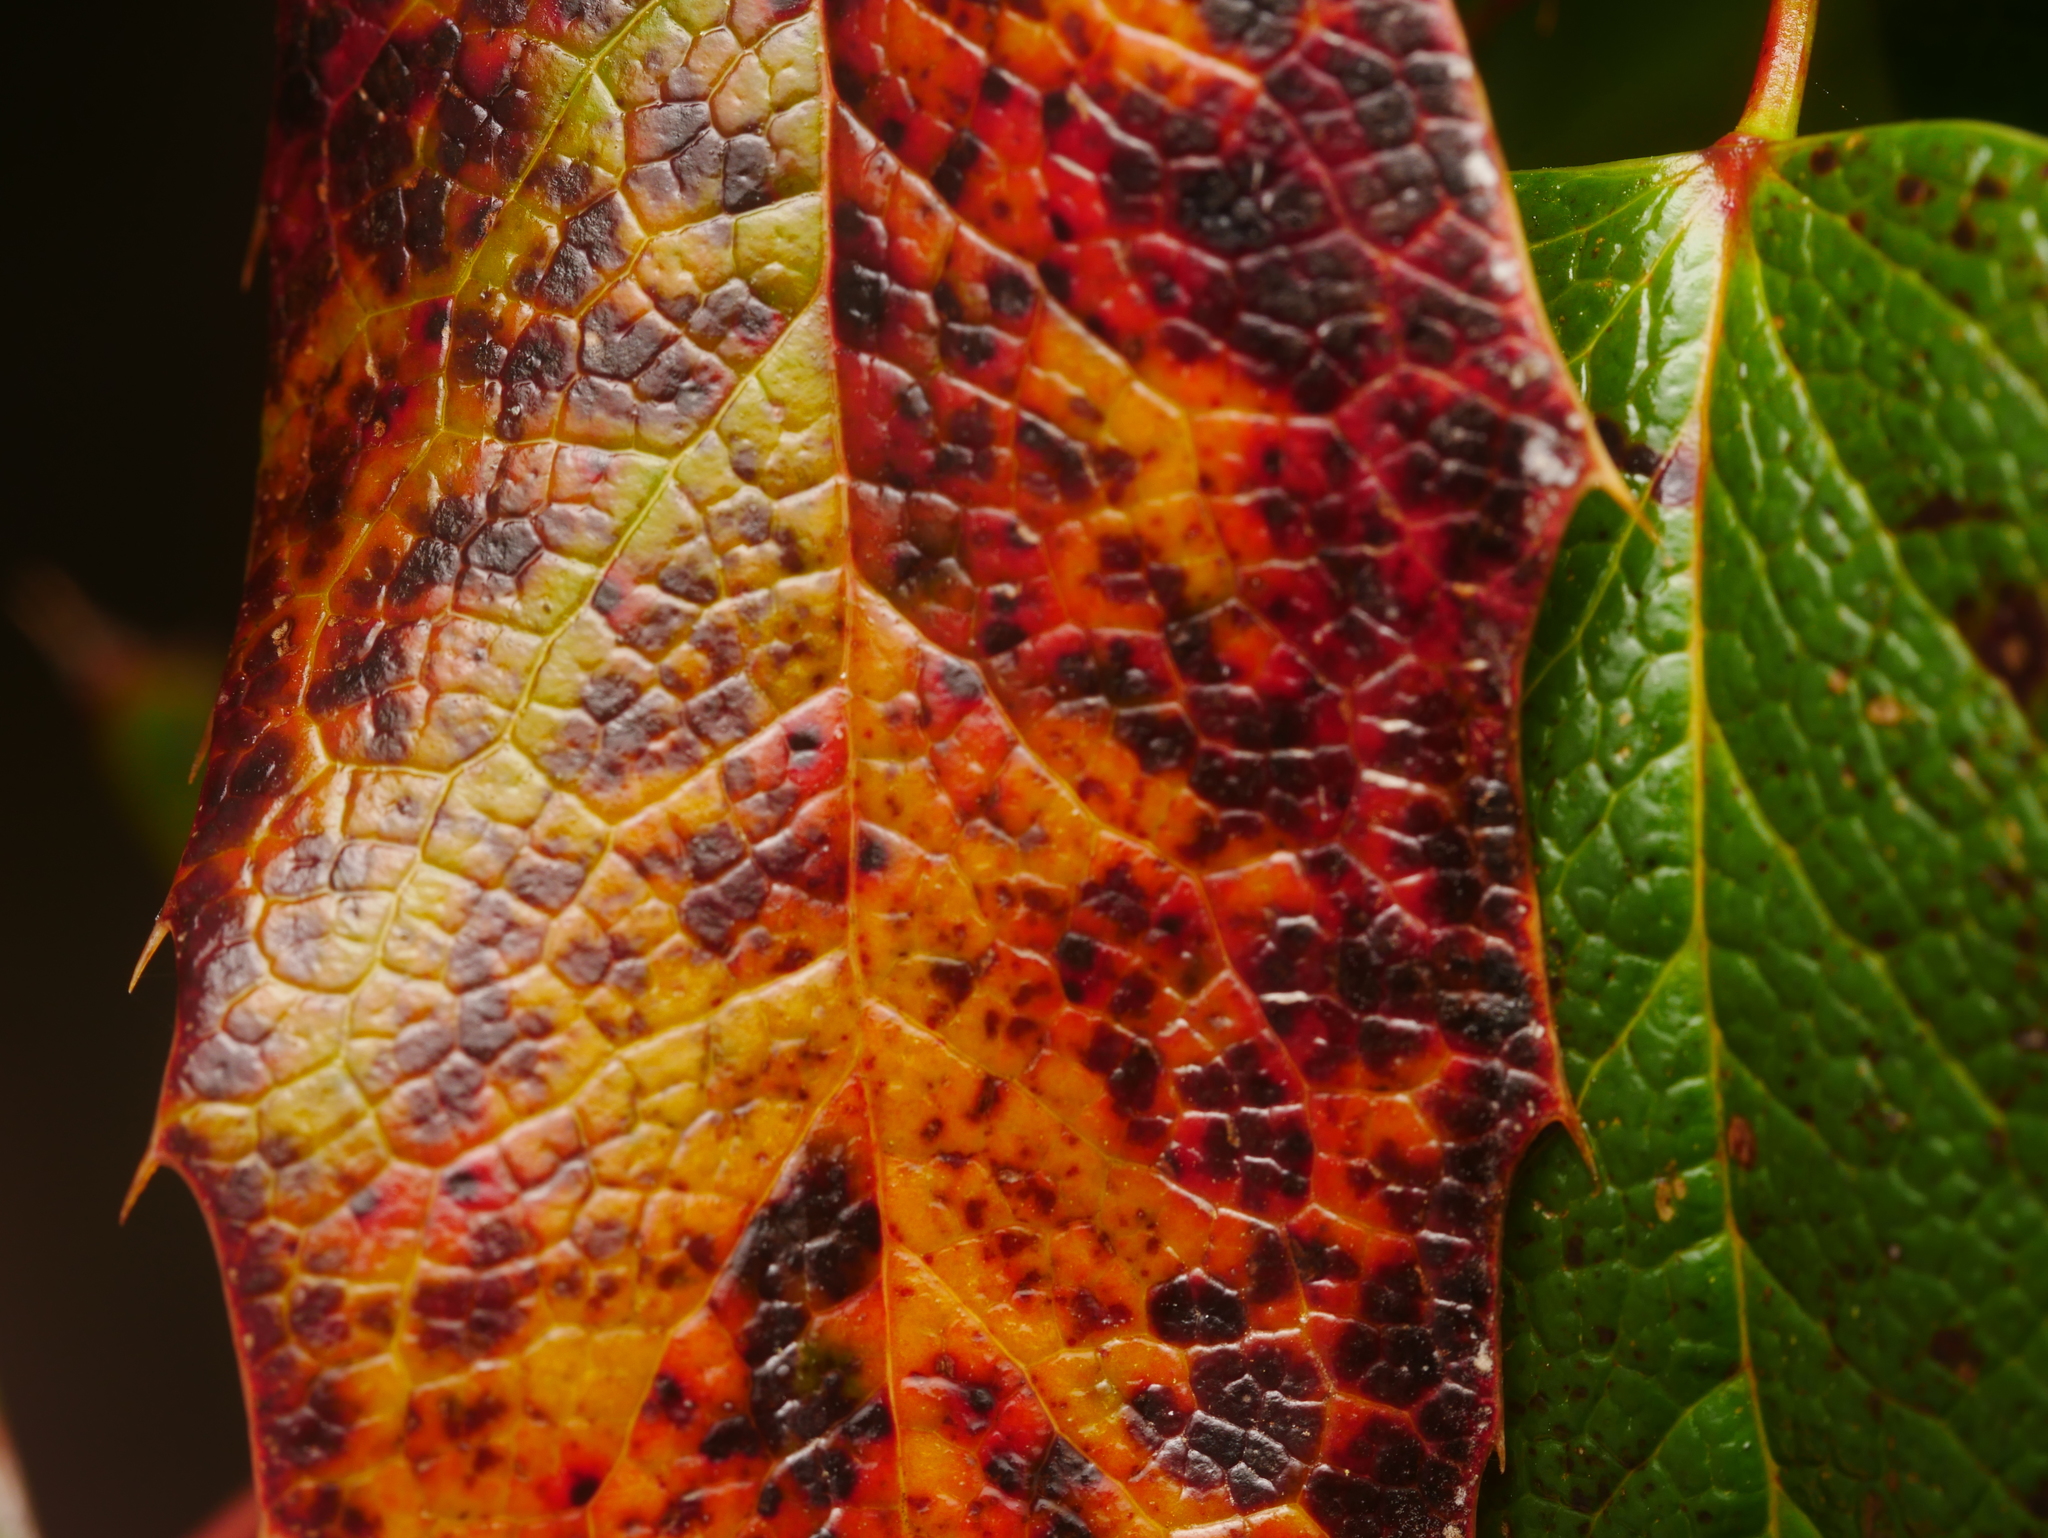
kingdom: Fungi
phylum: Basidiomycota
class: Pucciniomycetes
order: Pucciniales
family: Pucciniaceae
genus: Cumminsiella
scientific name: Cumminsiella mirabilissima
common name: Mahonia rust
